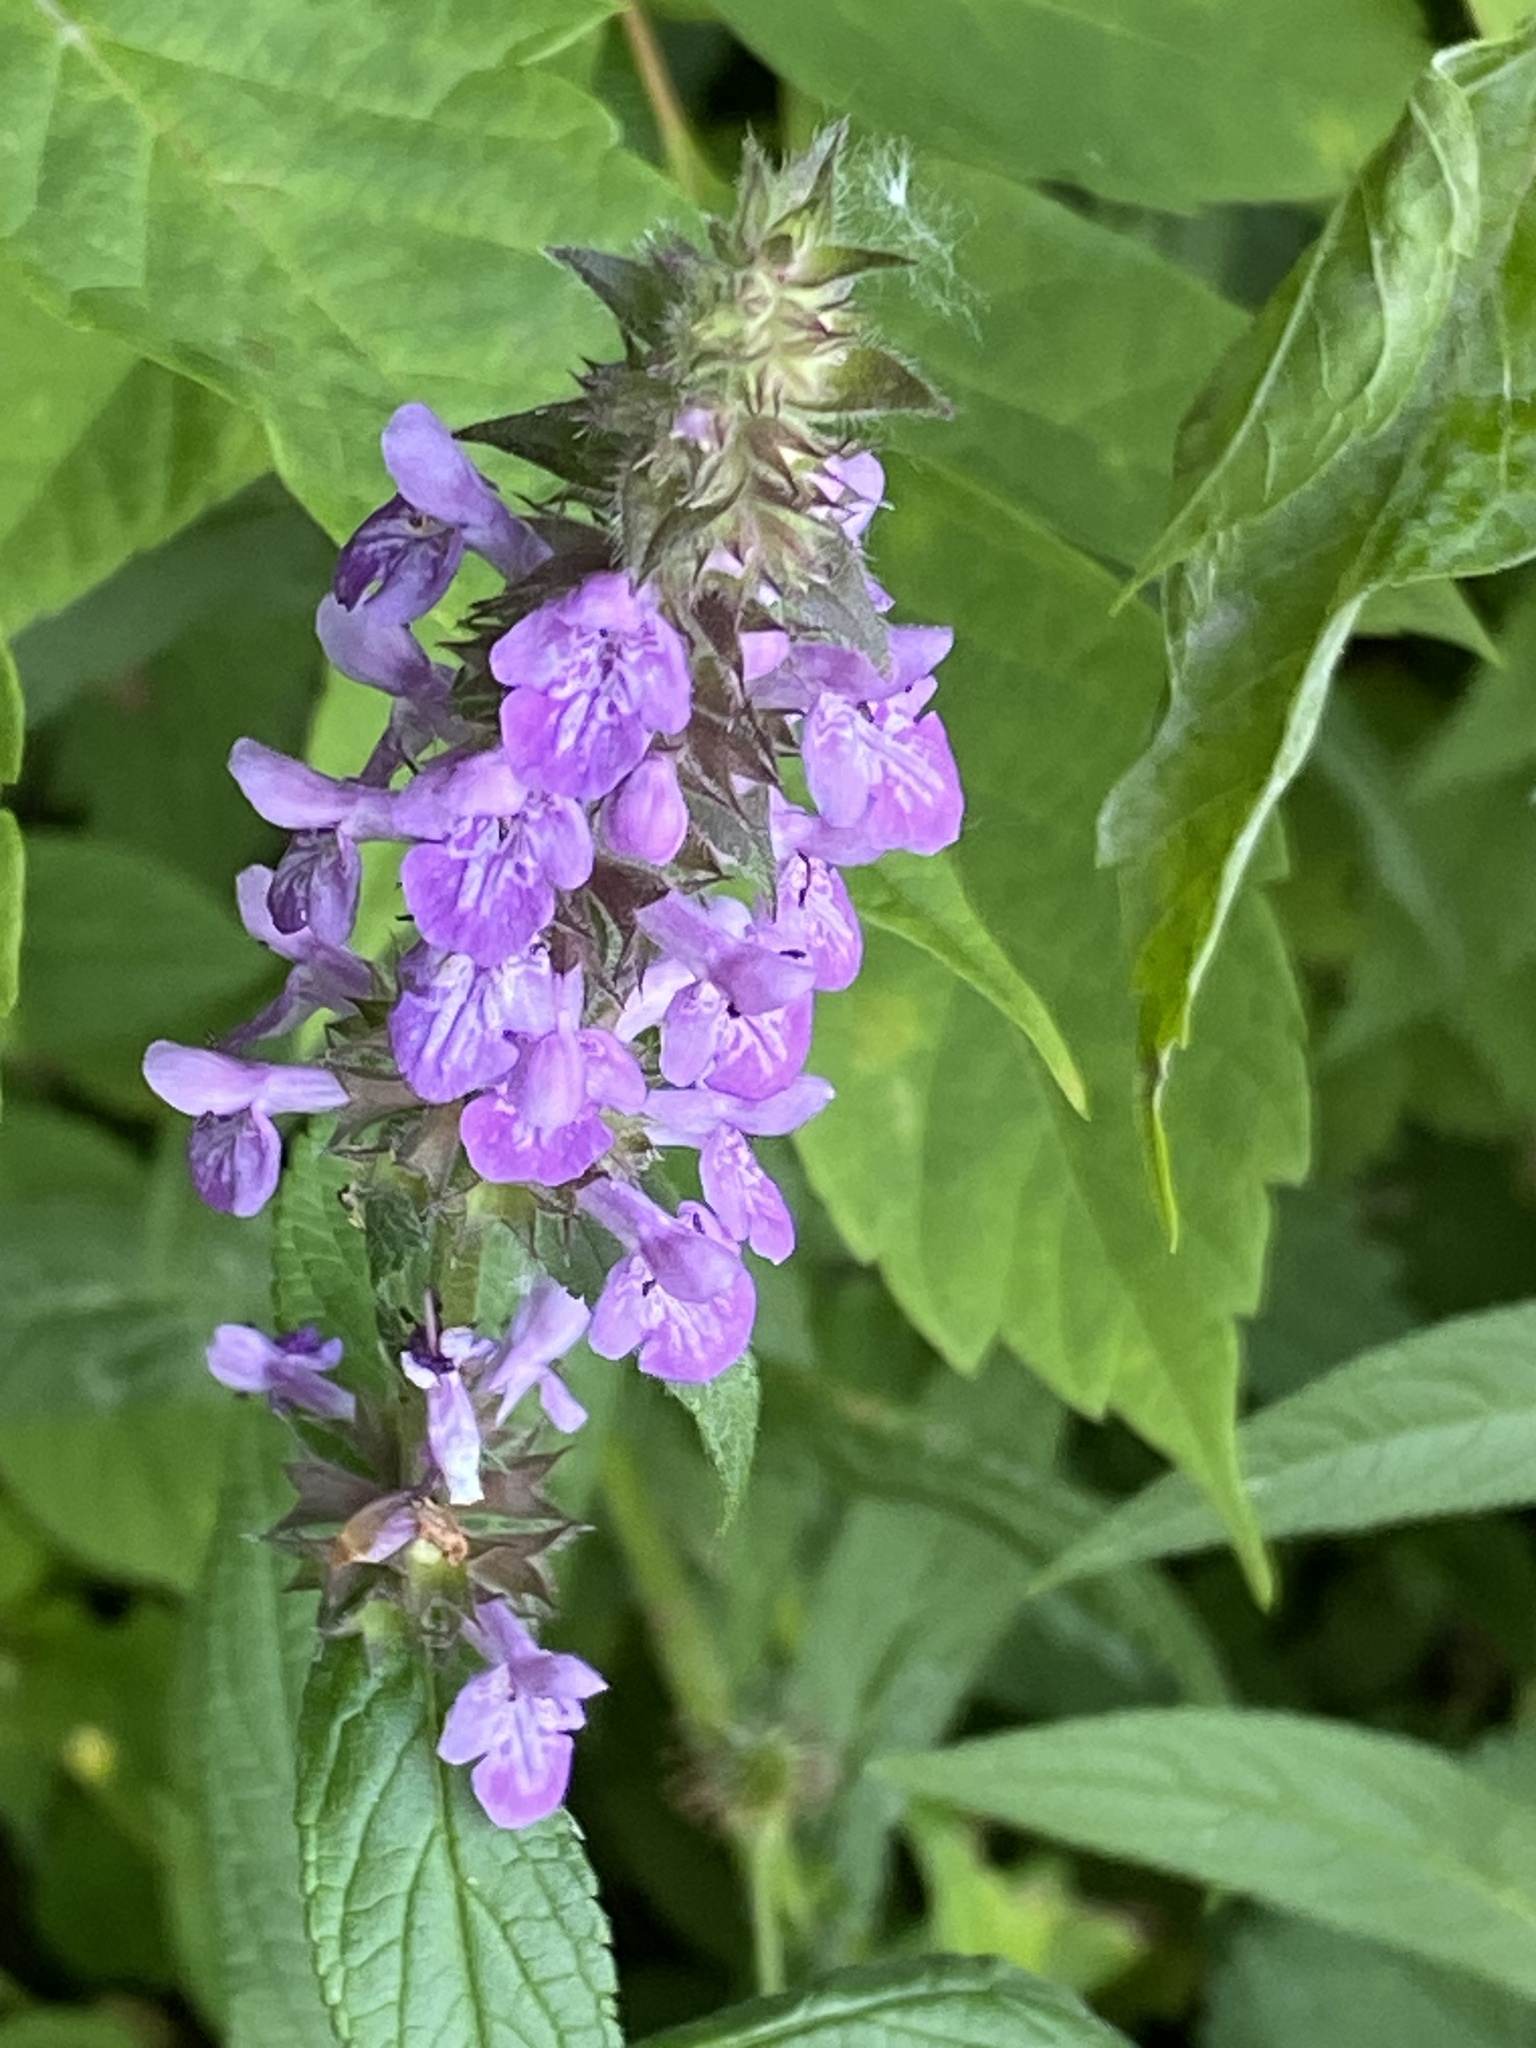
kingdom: Plantae
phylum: Tracheophyta
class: Magnoliopsida
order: Lamiales
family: Lamiaceae
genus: Stachys
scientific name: Stachys palustris
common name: Marsh woundwort
